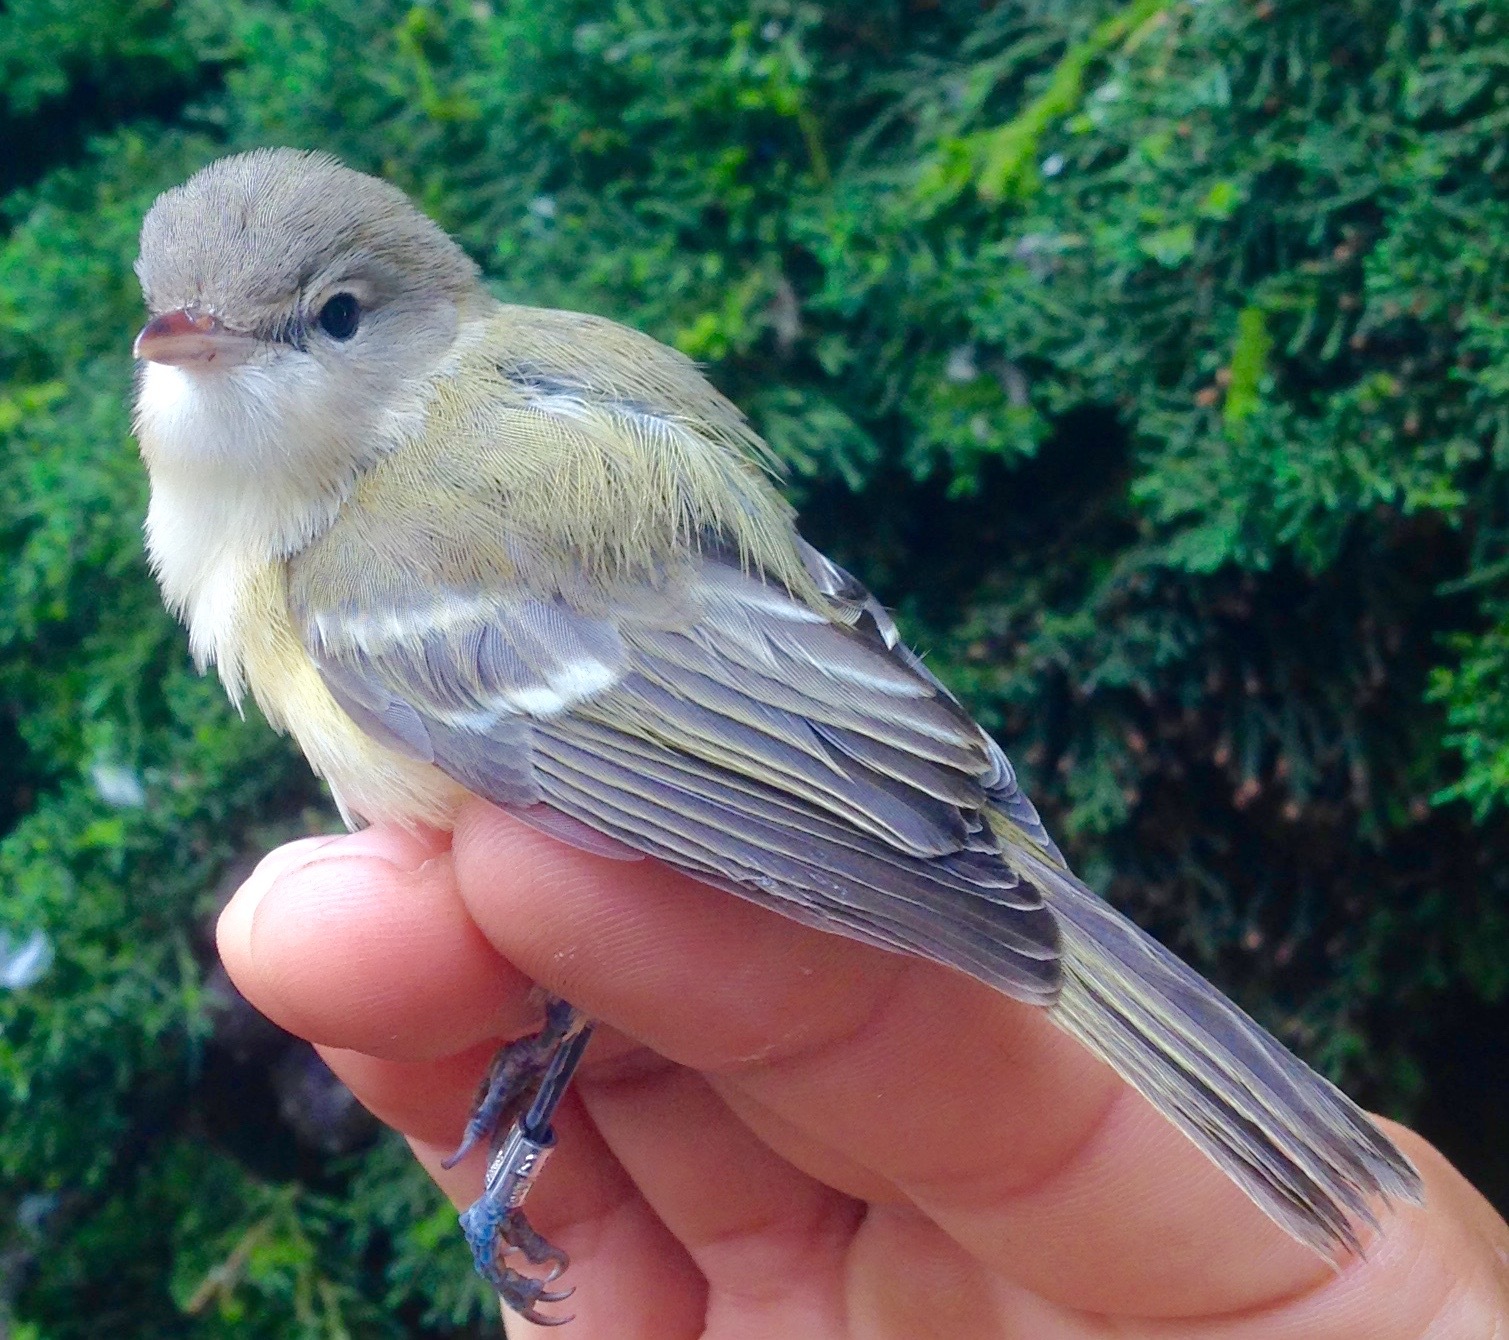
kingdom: Animalia
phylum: Chordata
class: Aves
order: Passeriformes
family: Vireonidae
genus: Vireo
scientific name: Vireo bellii
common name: Bell's vireo
